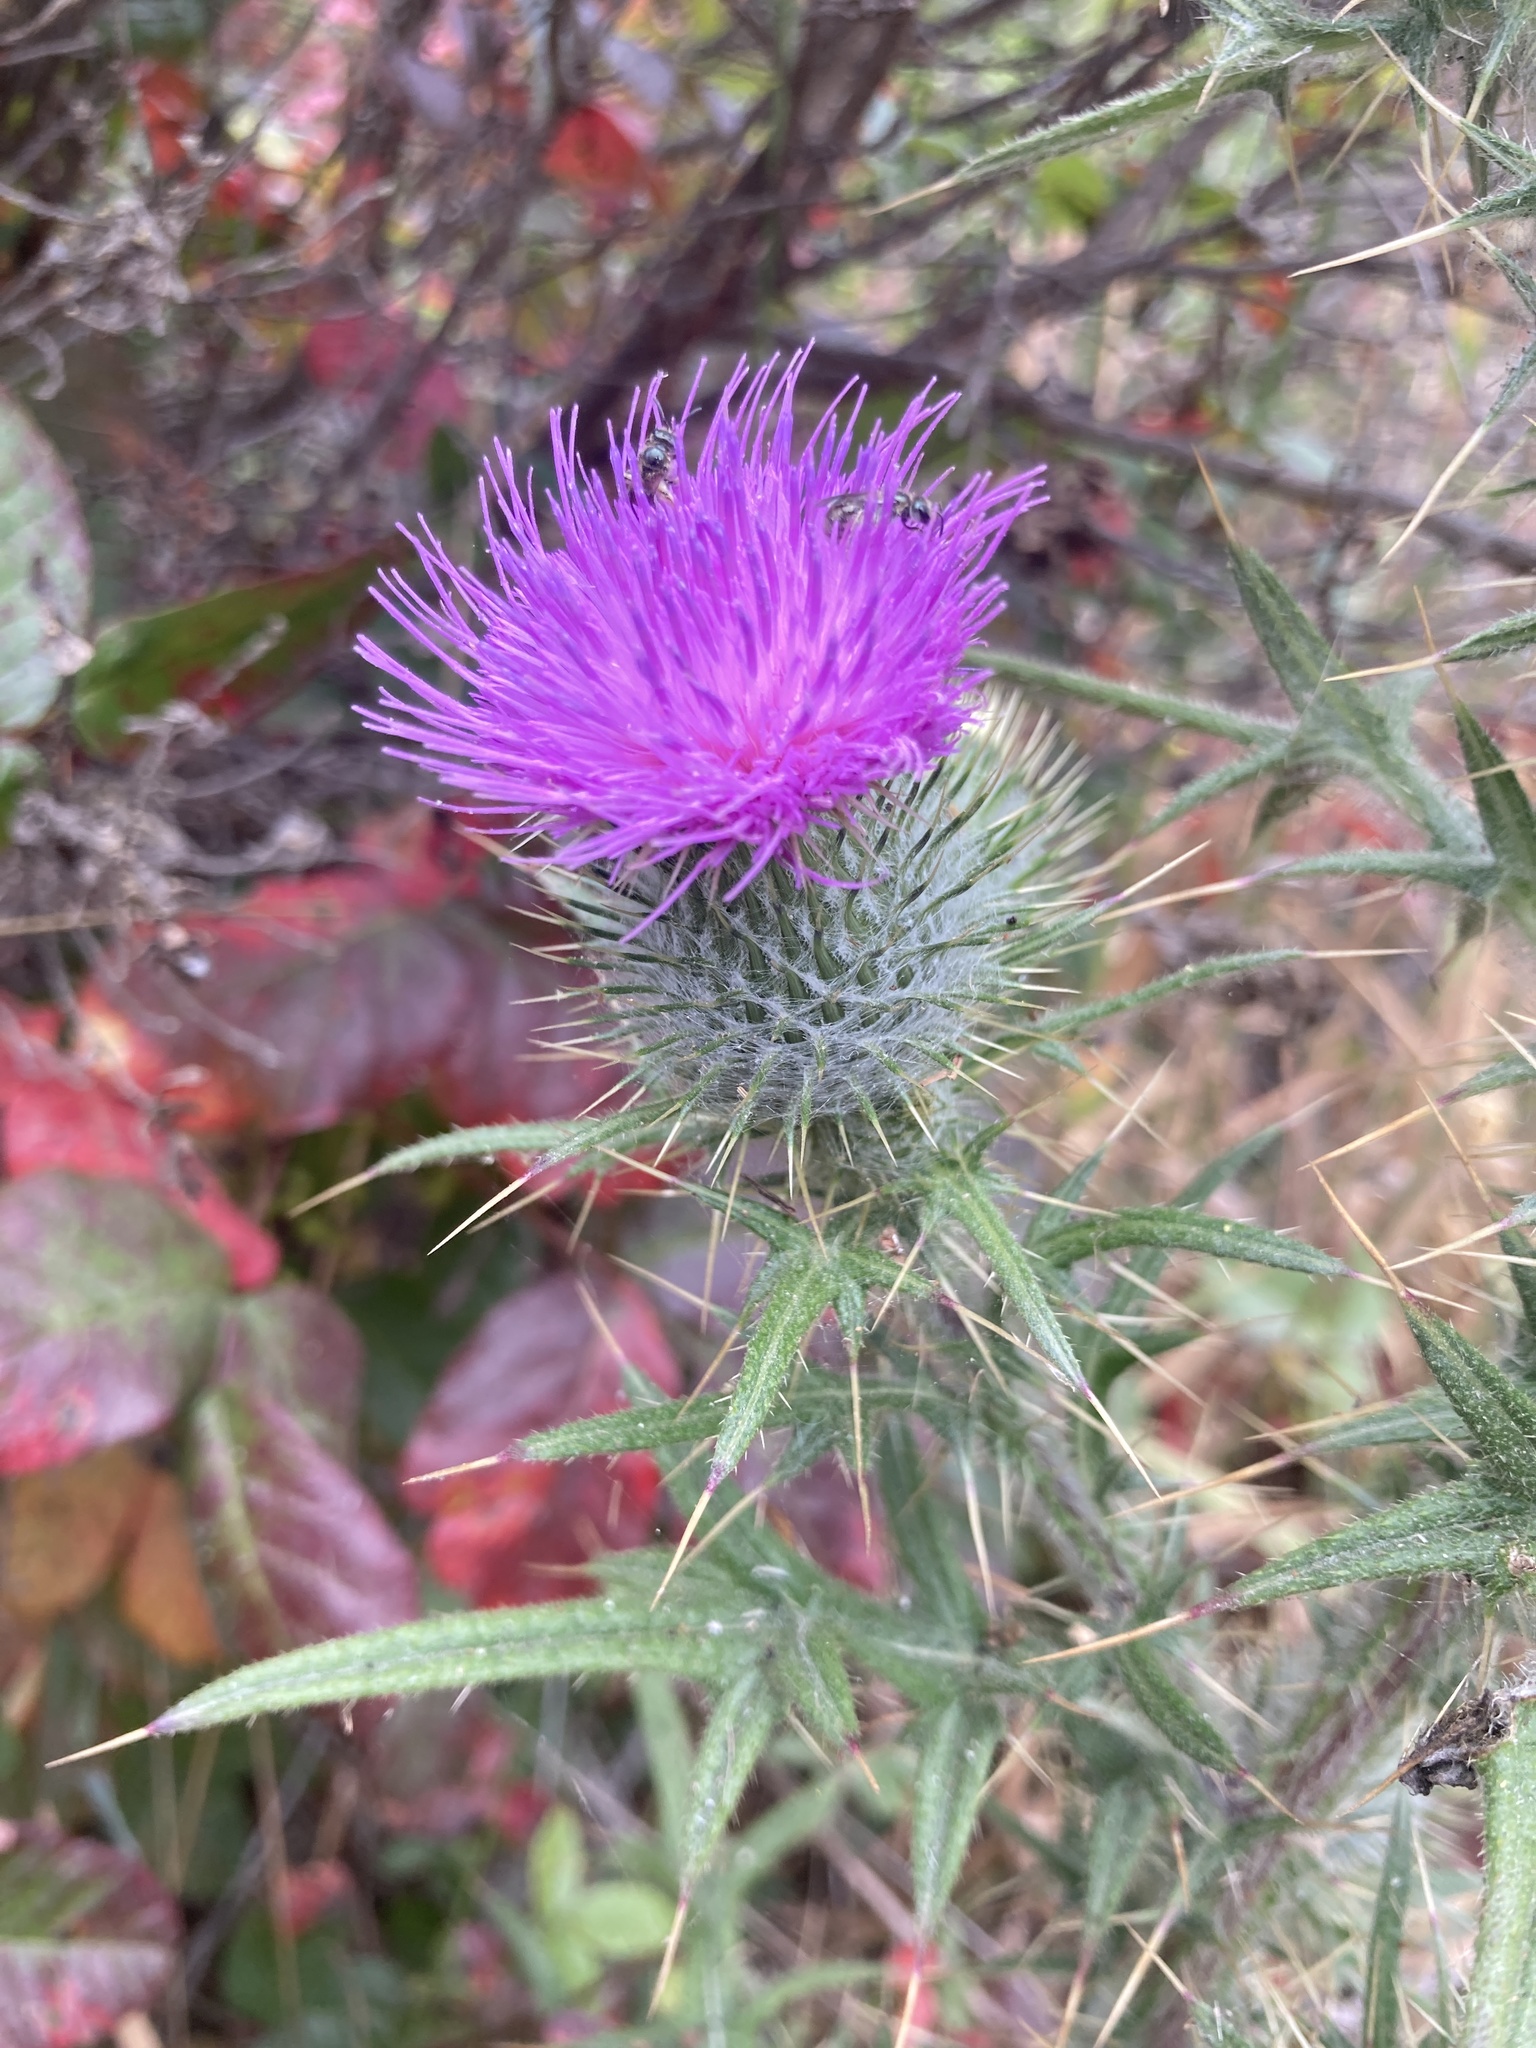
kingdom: Plantae
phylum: Tracheophyta
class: Magnoliopsida
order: Asterales
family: Asteraceae
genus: Cirsium
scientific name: Cirsium vulgare
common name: Bull thistle
